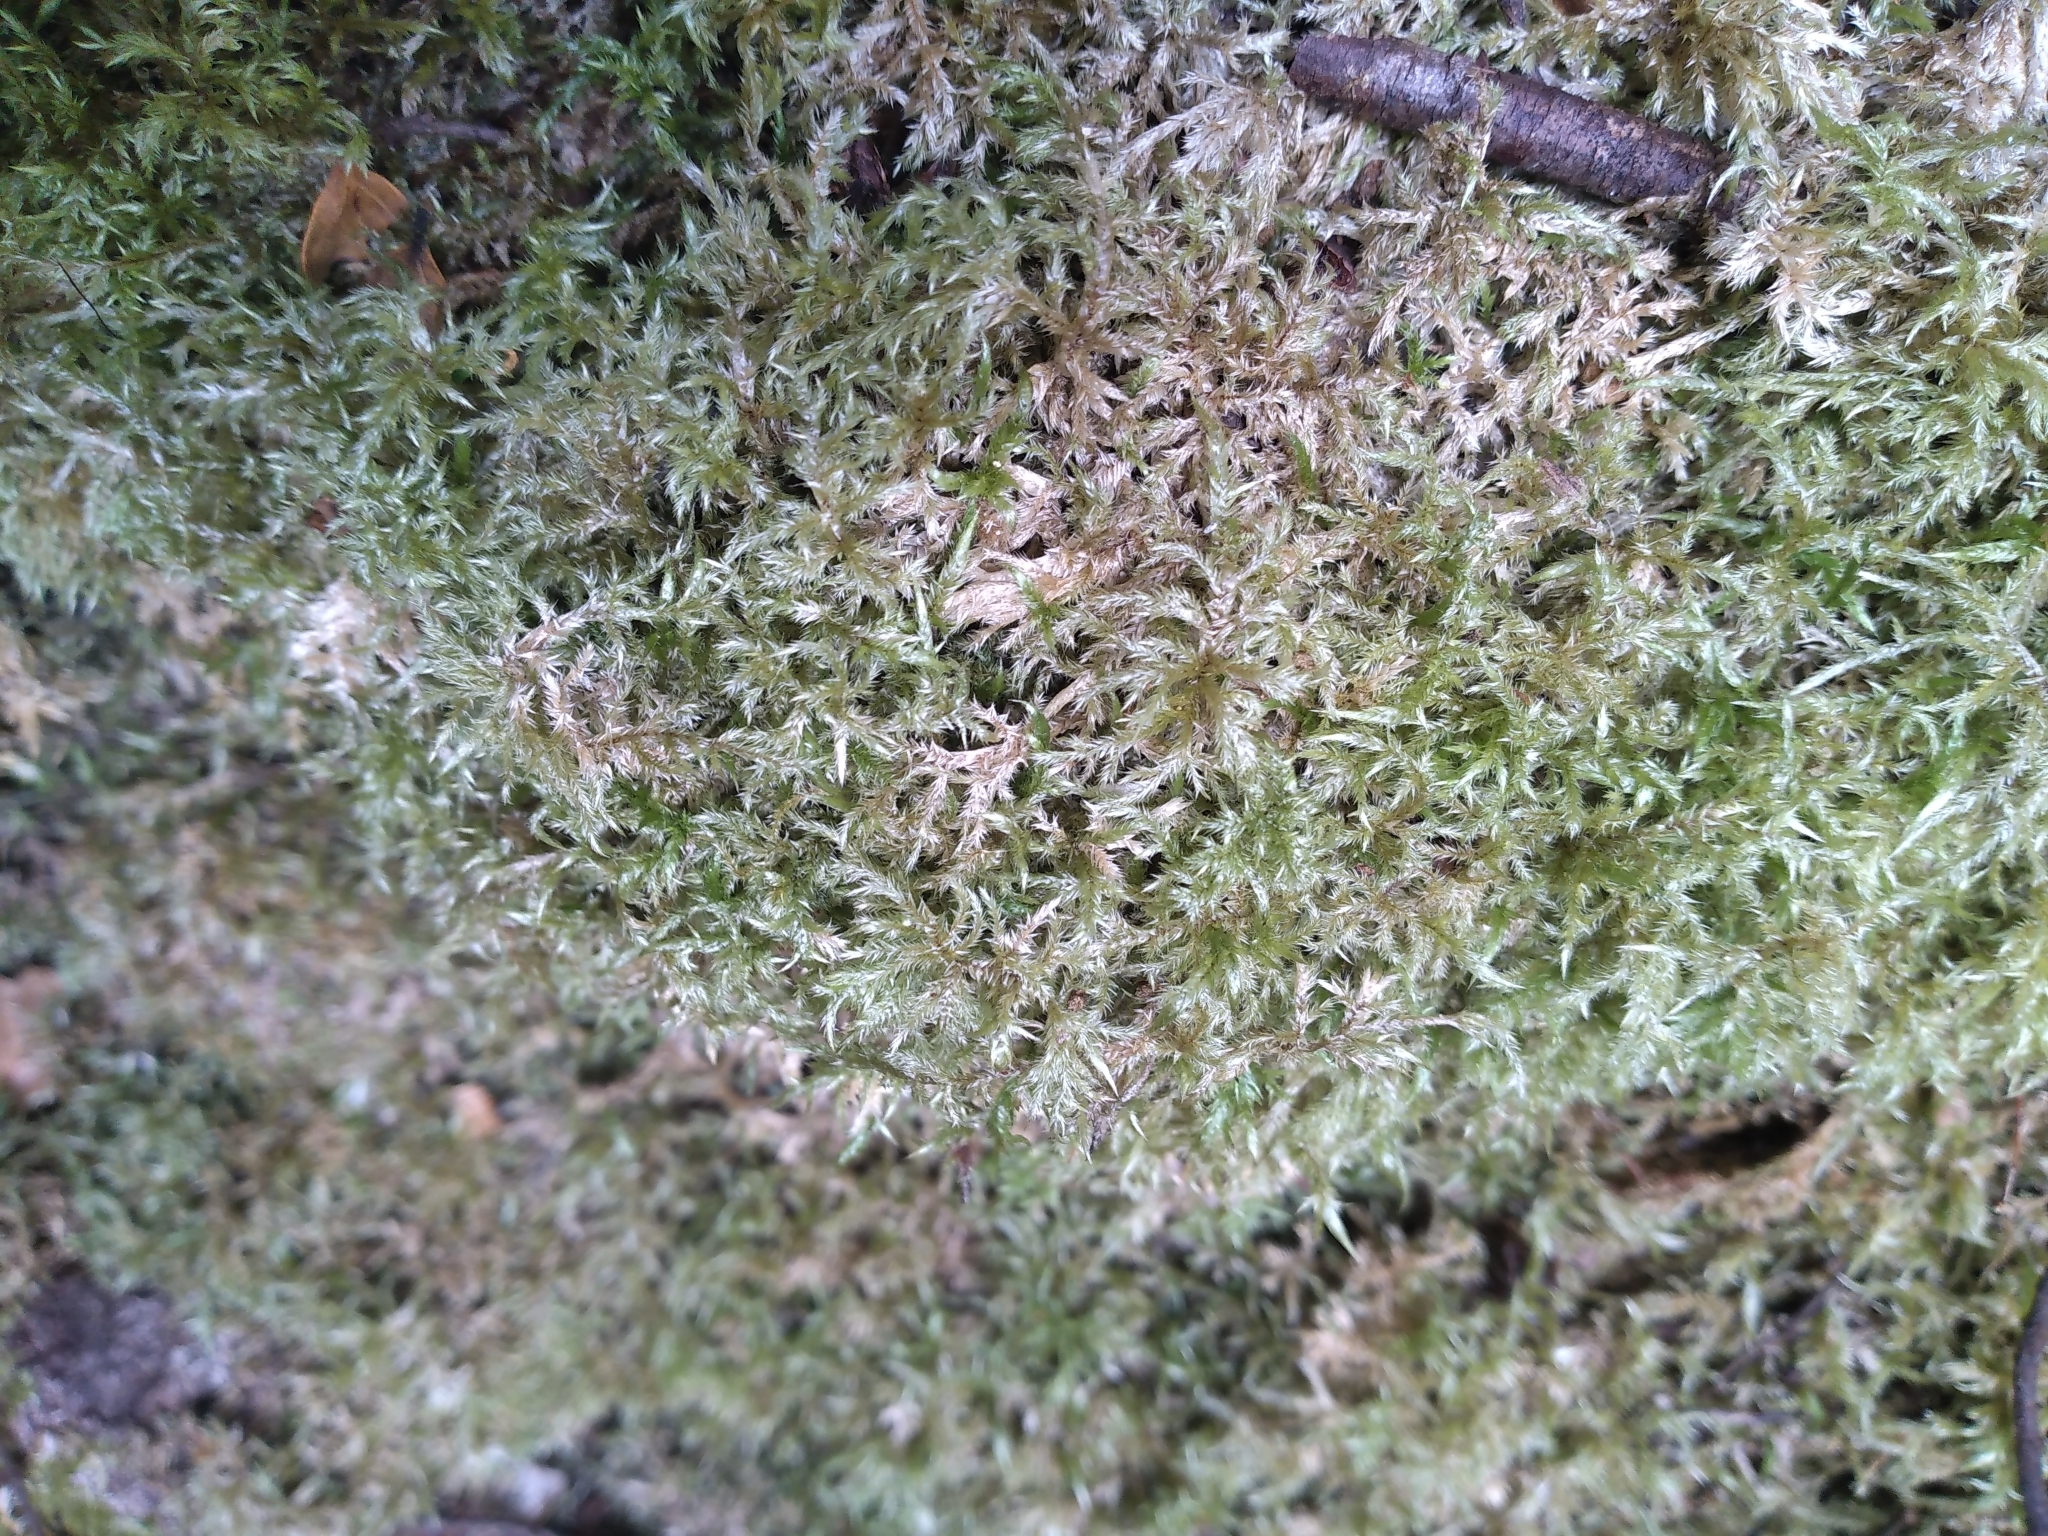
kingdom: Plantae
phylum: Bryophyta
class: Bryopsida
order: Hypnales
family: Pylaisiadelphaceae
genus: Wijkia
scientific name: Wijkia extenuata
